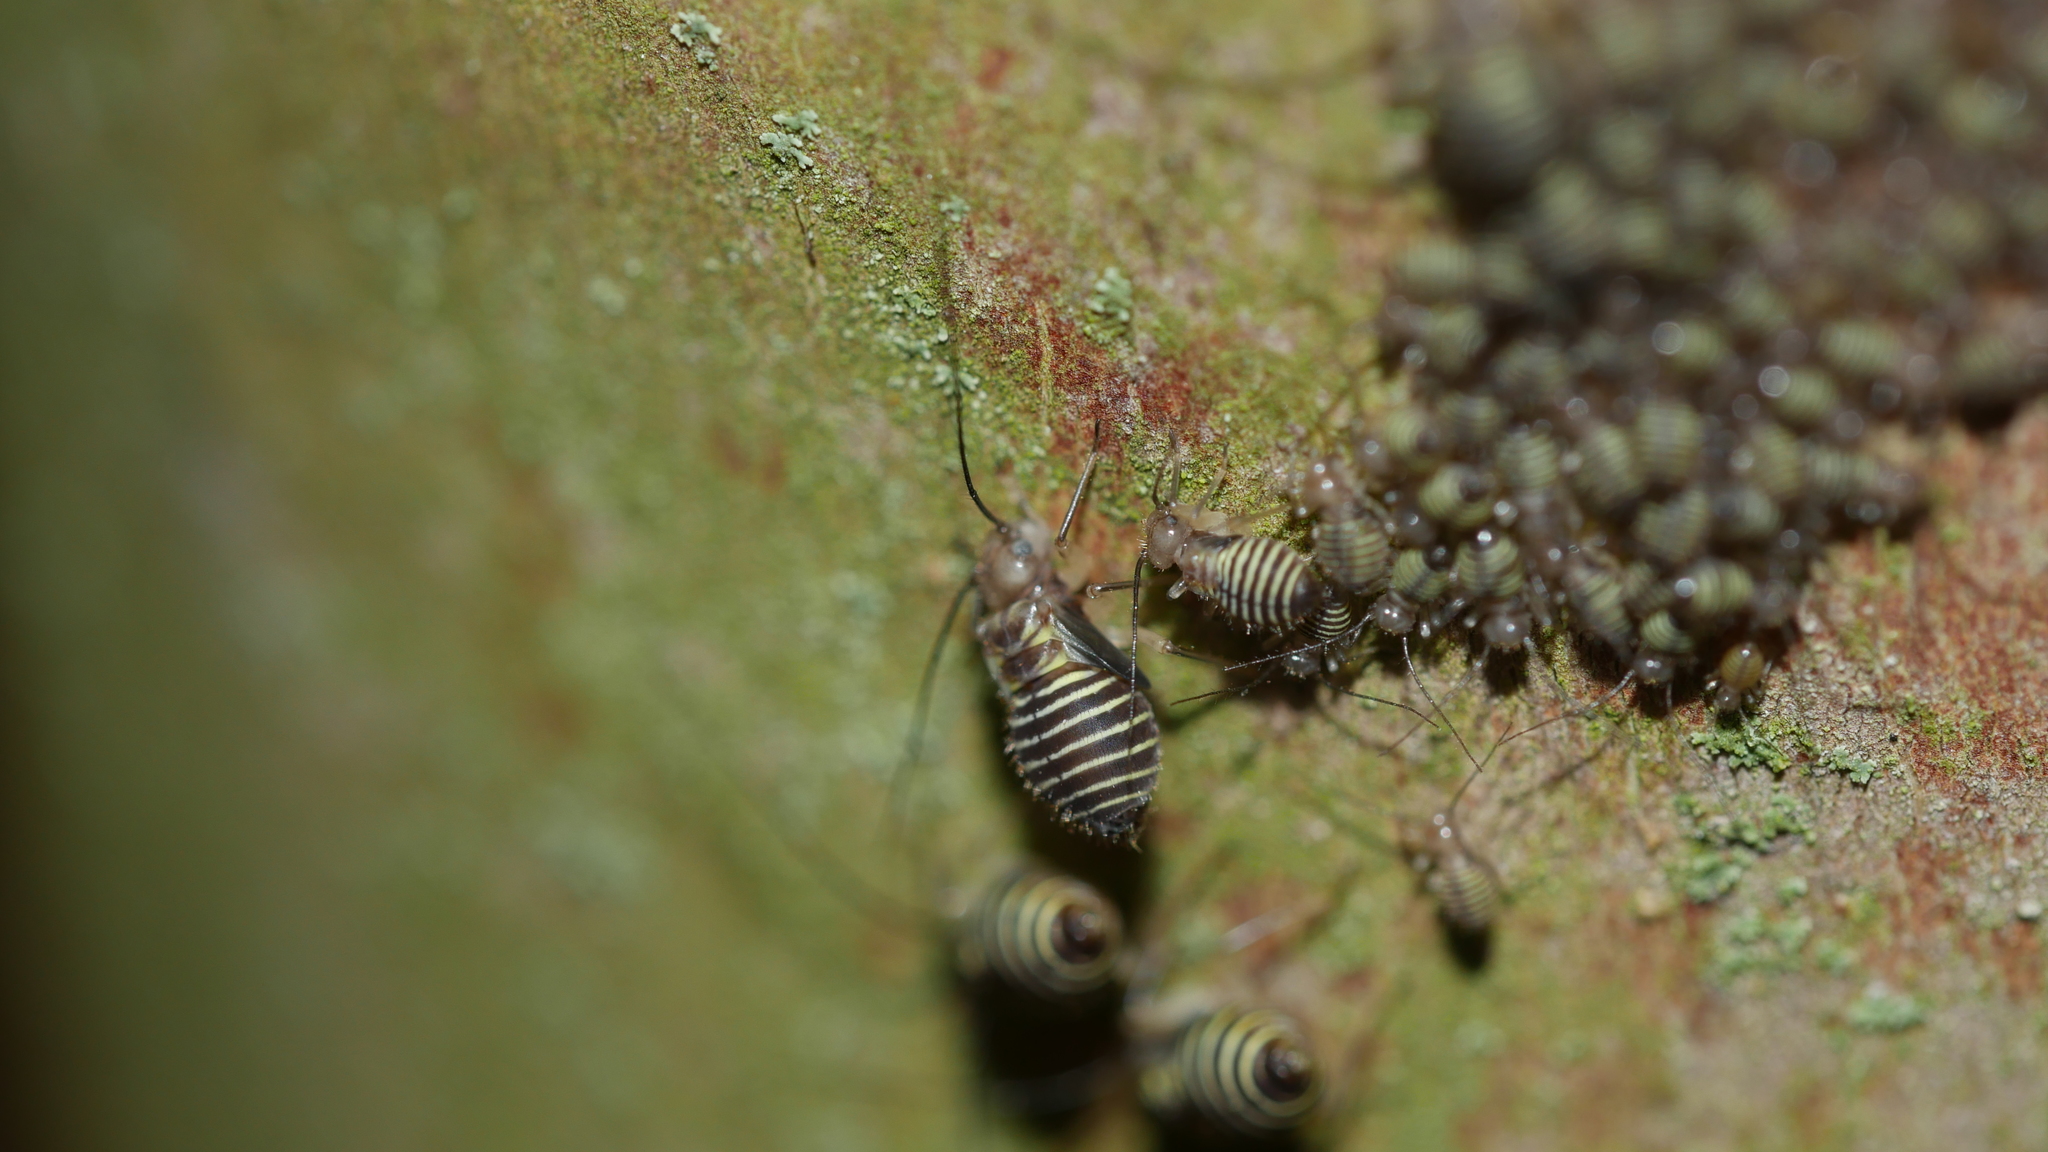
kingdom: Animalia
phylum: Arthropoda
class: Insecta
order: Psocodea
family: Psocidae
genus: Cerastipsocus
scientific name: Cerastipsocus venosus
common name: Tree cattle
